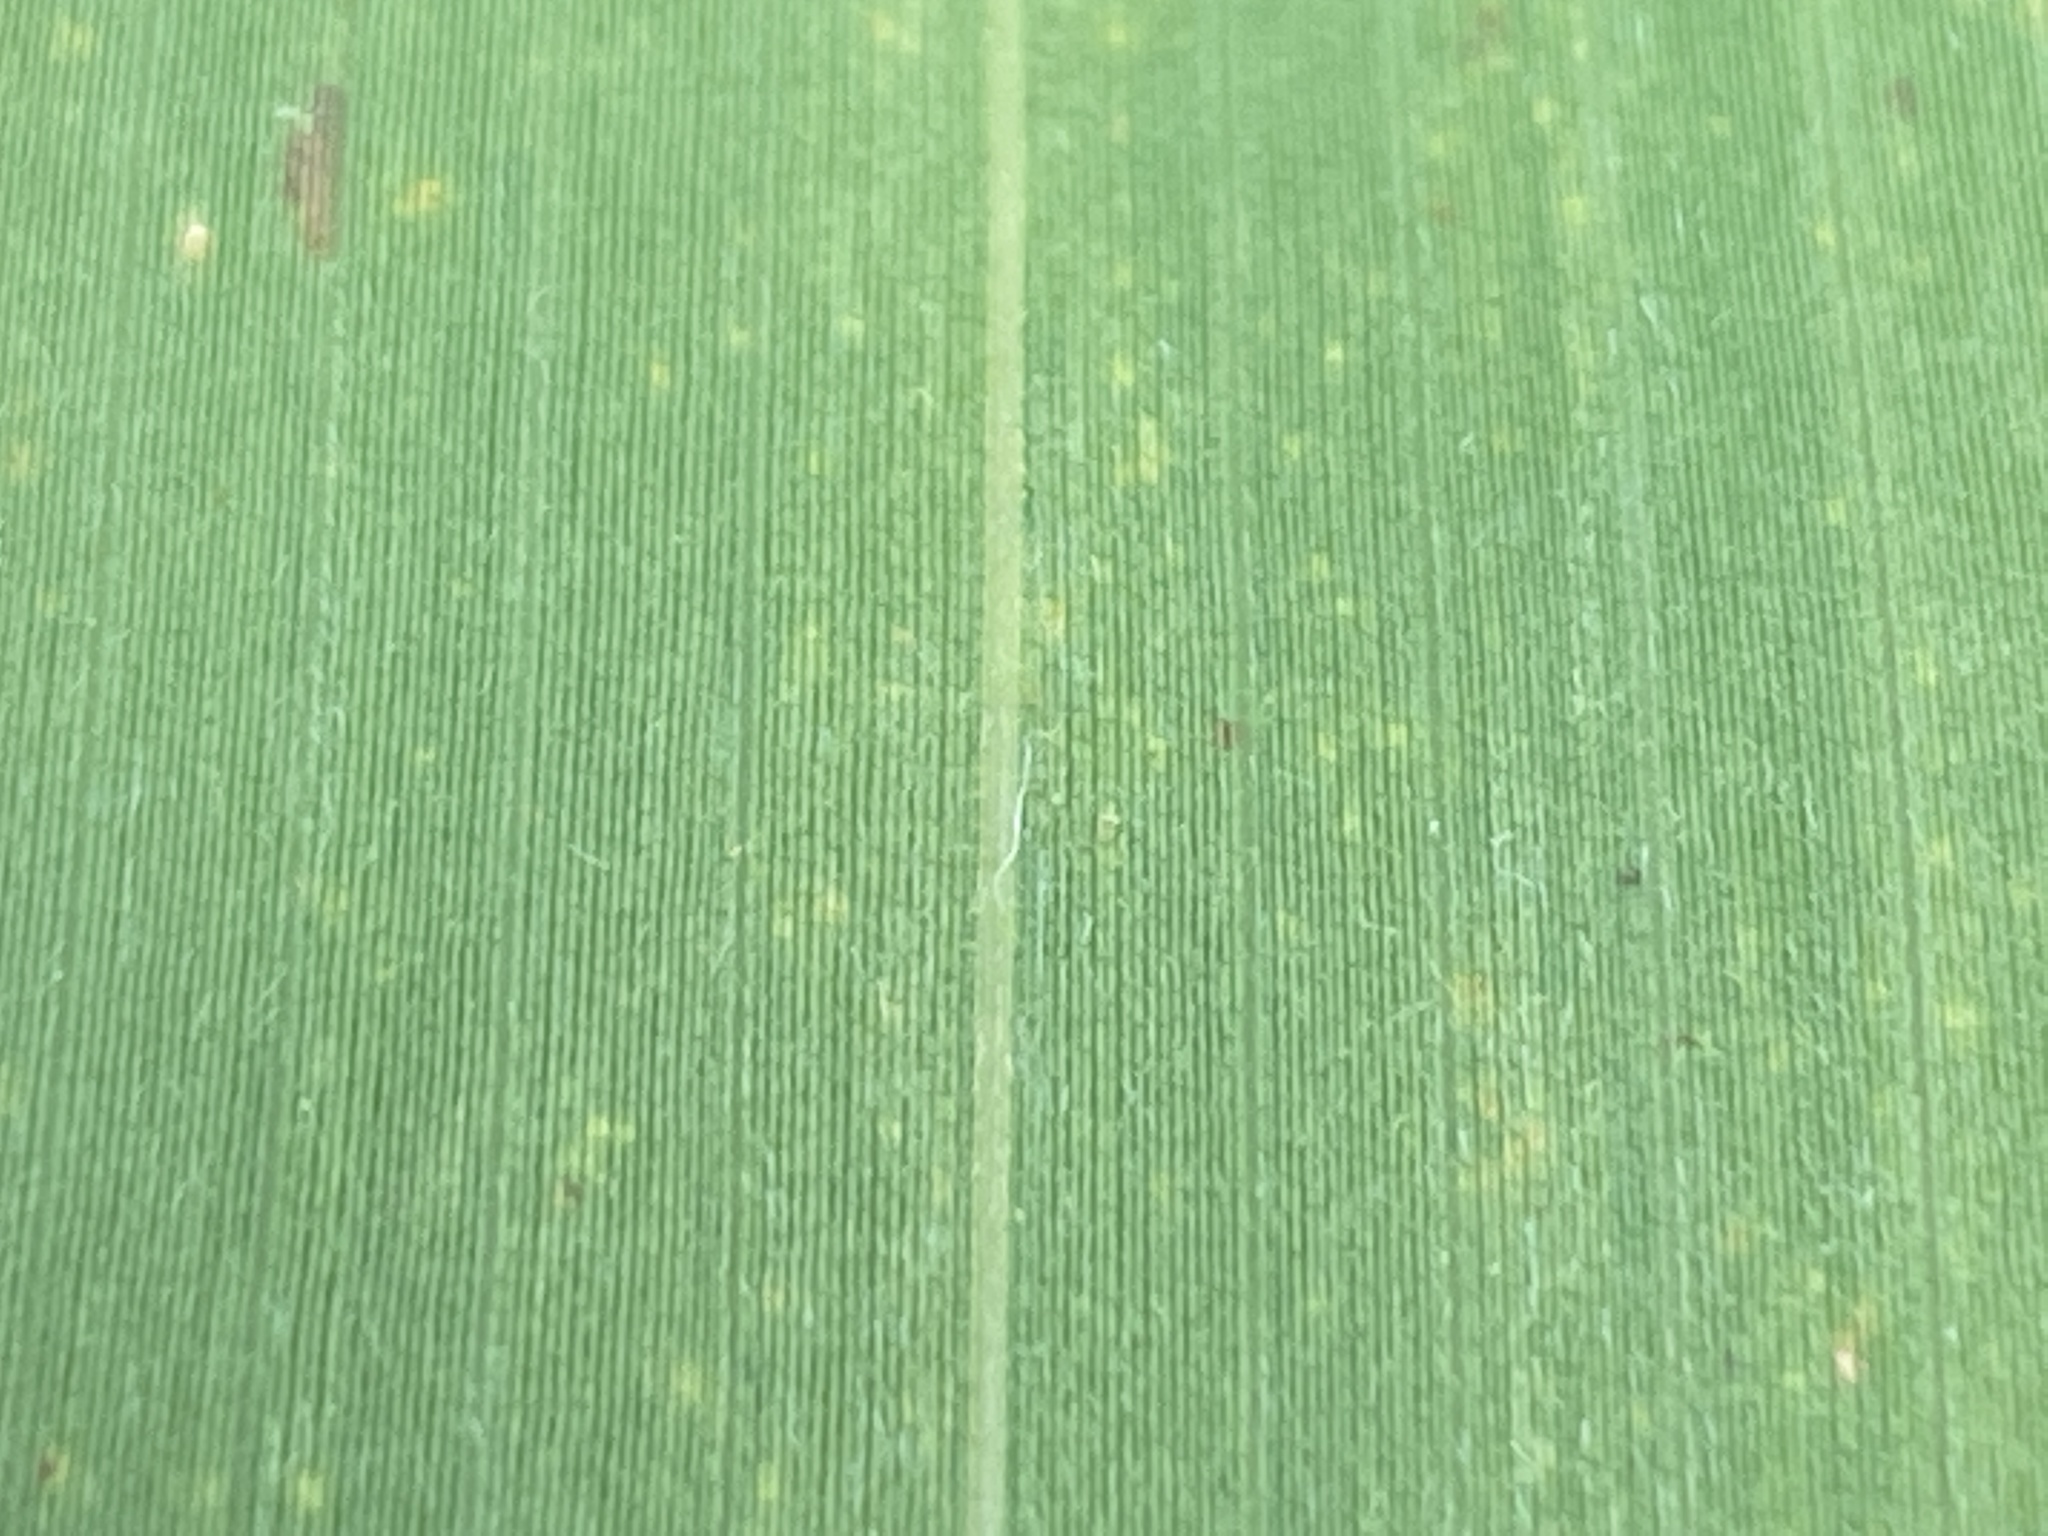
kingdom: Plantae
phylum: Tracheophyta
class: Liliopsida
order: Poales
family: Poaceae
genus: Arundinaria
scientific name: Arundinaria tecta
